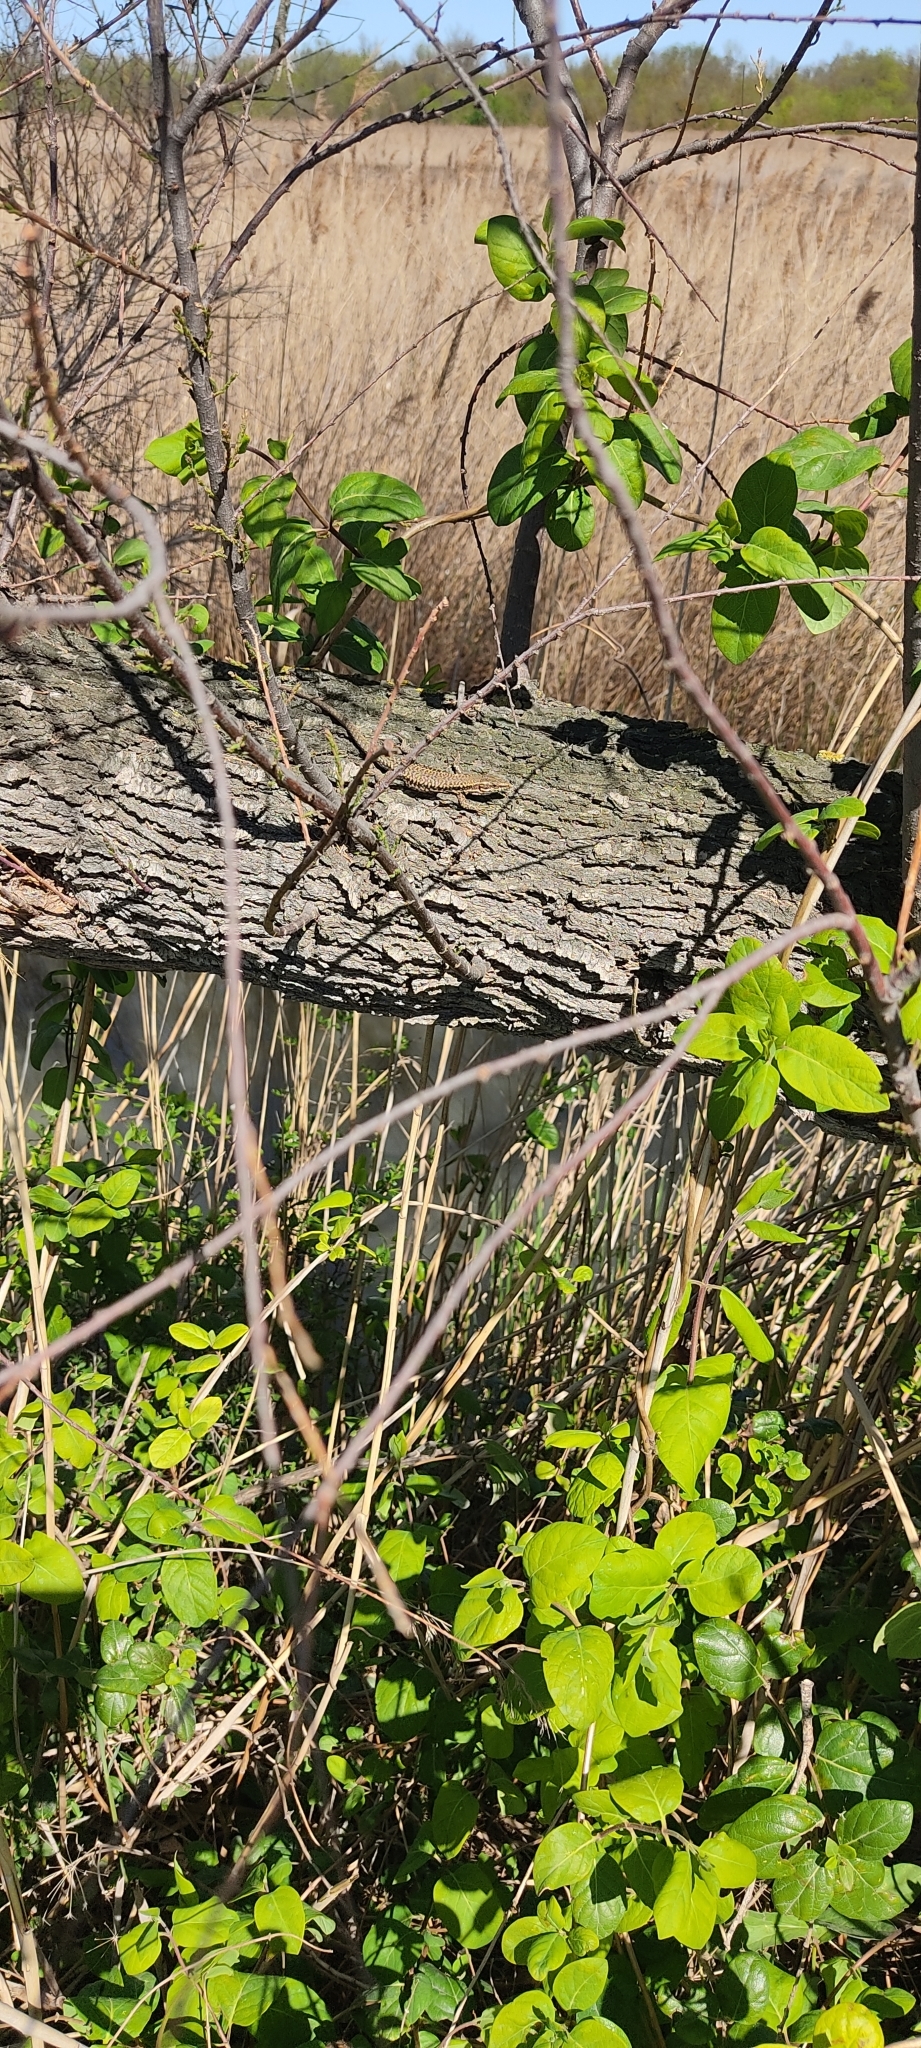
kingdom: Animalia
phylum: Chordata
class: Squamata
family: Lacertidae
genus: Podarcis
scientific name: Podarcis muralis
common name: Common wall lizard
